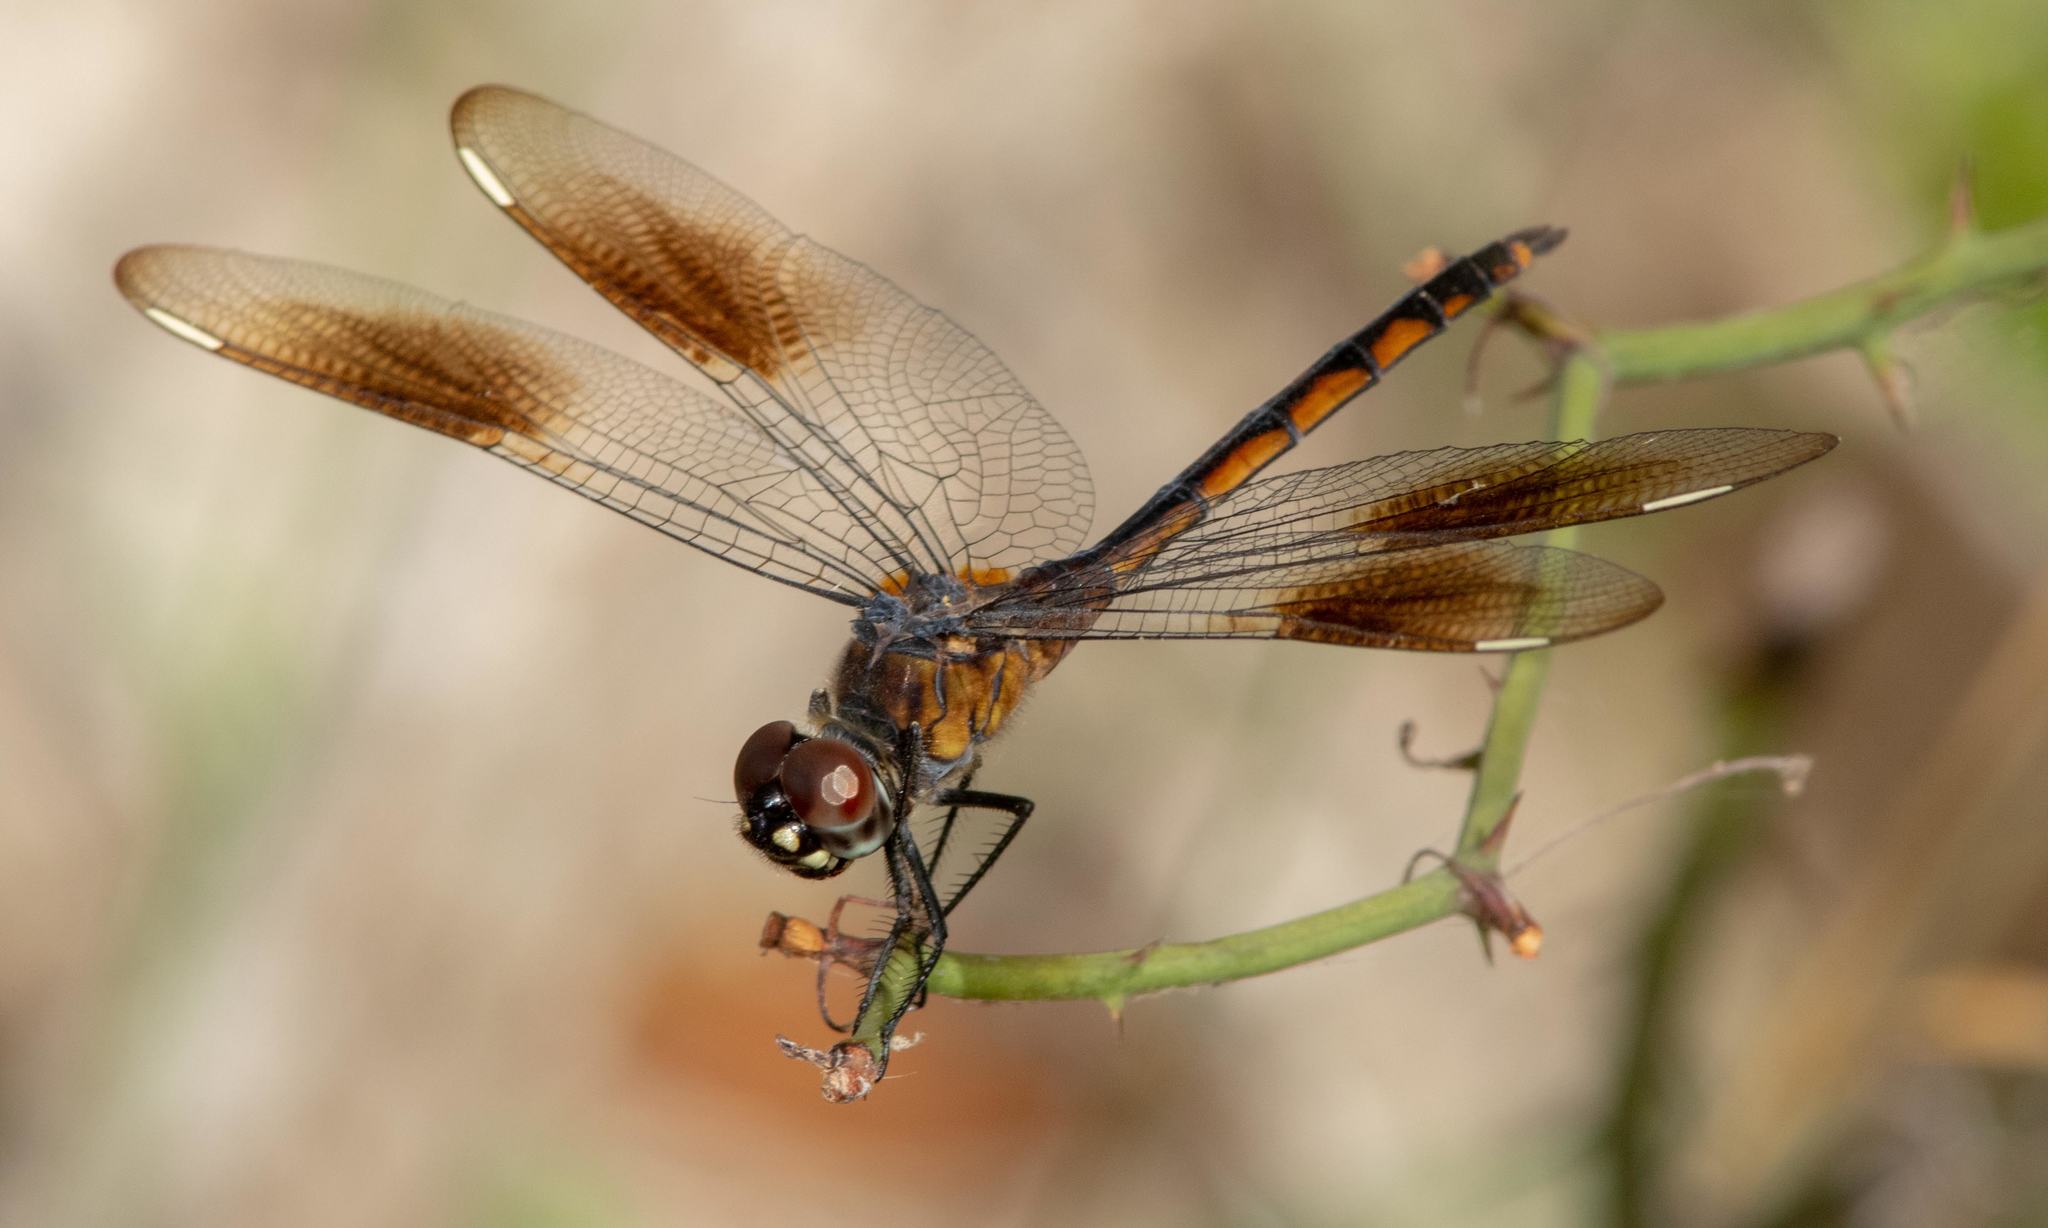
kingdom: Animalia
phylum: Arthropoda
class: Insecta
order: Odonata
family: Libellulidae
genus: Brachymesia
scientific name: Brachymesia gravida
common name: Four-spotted pennant
